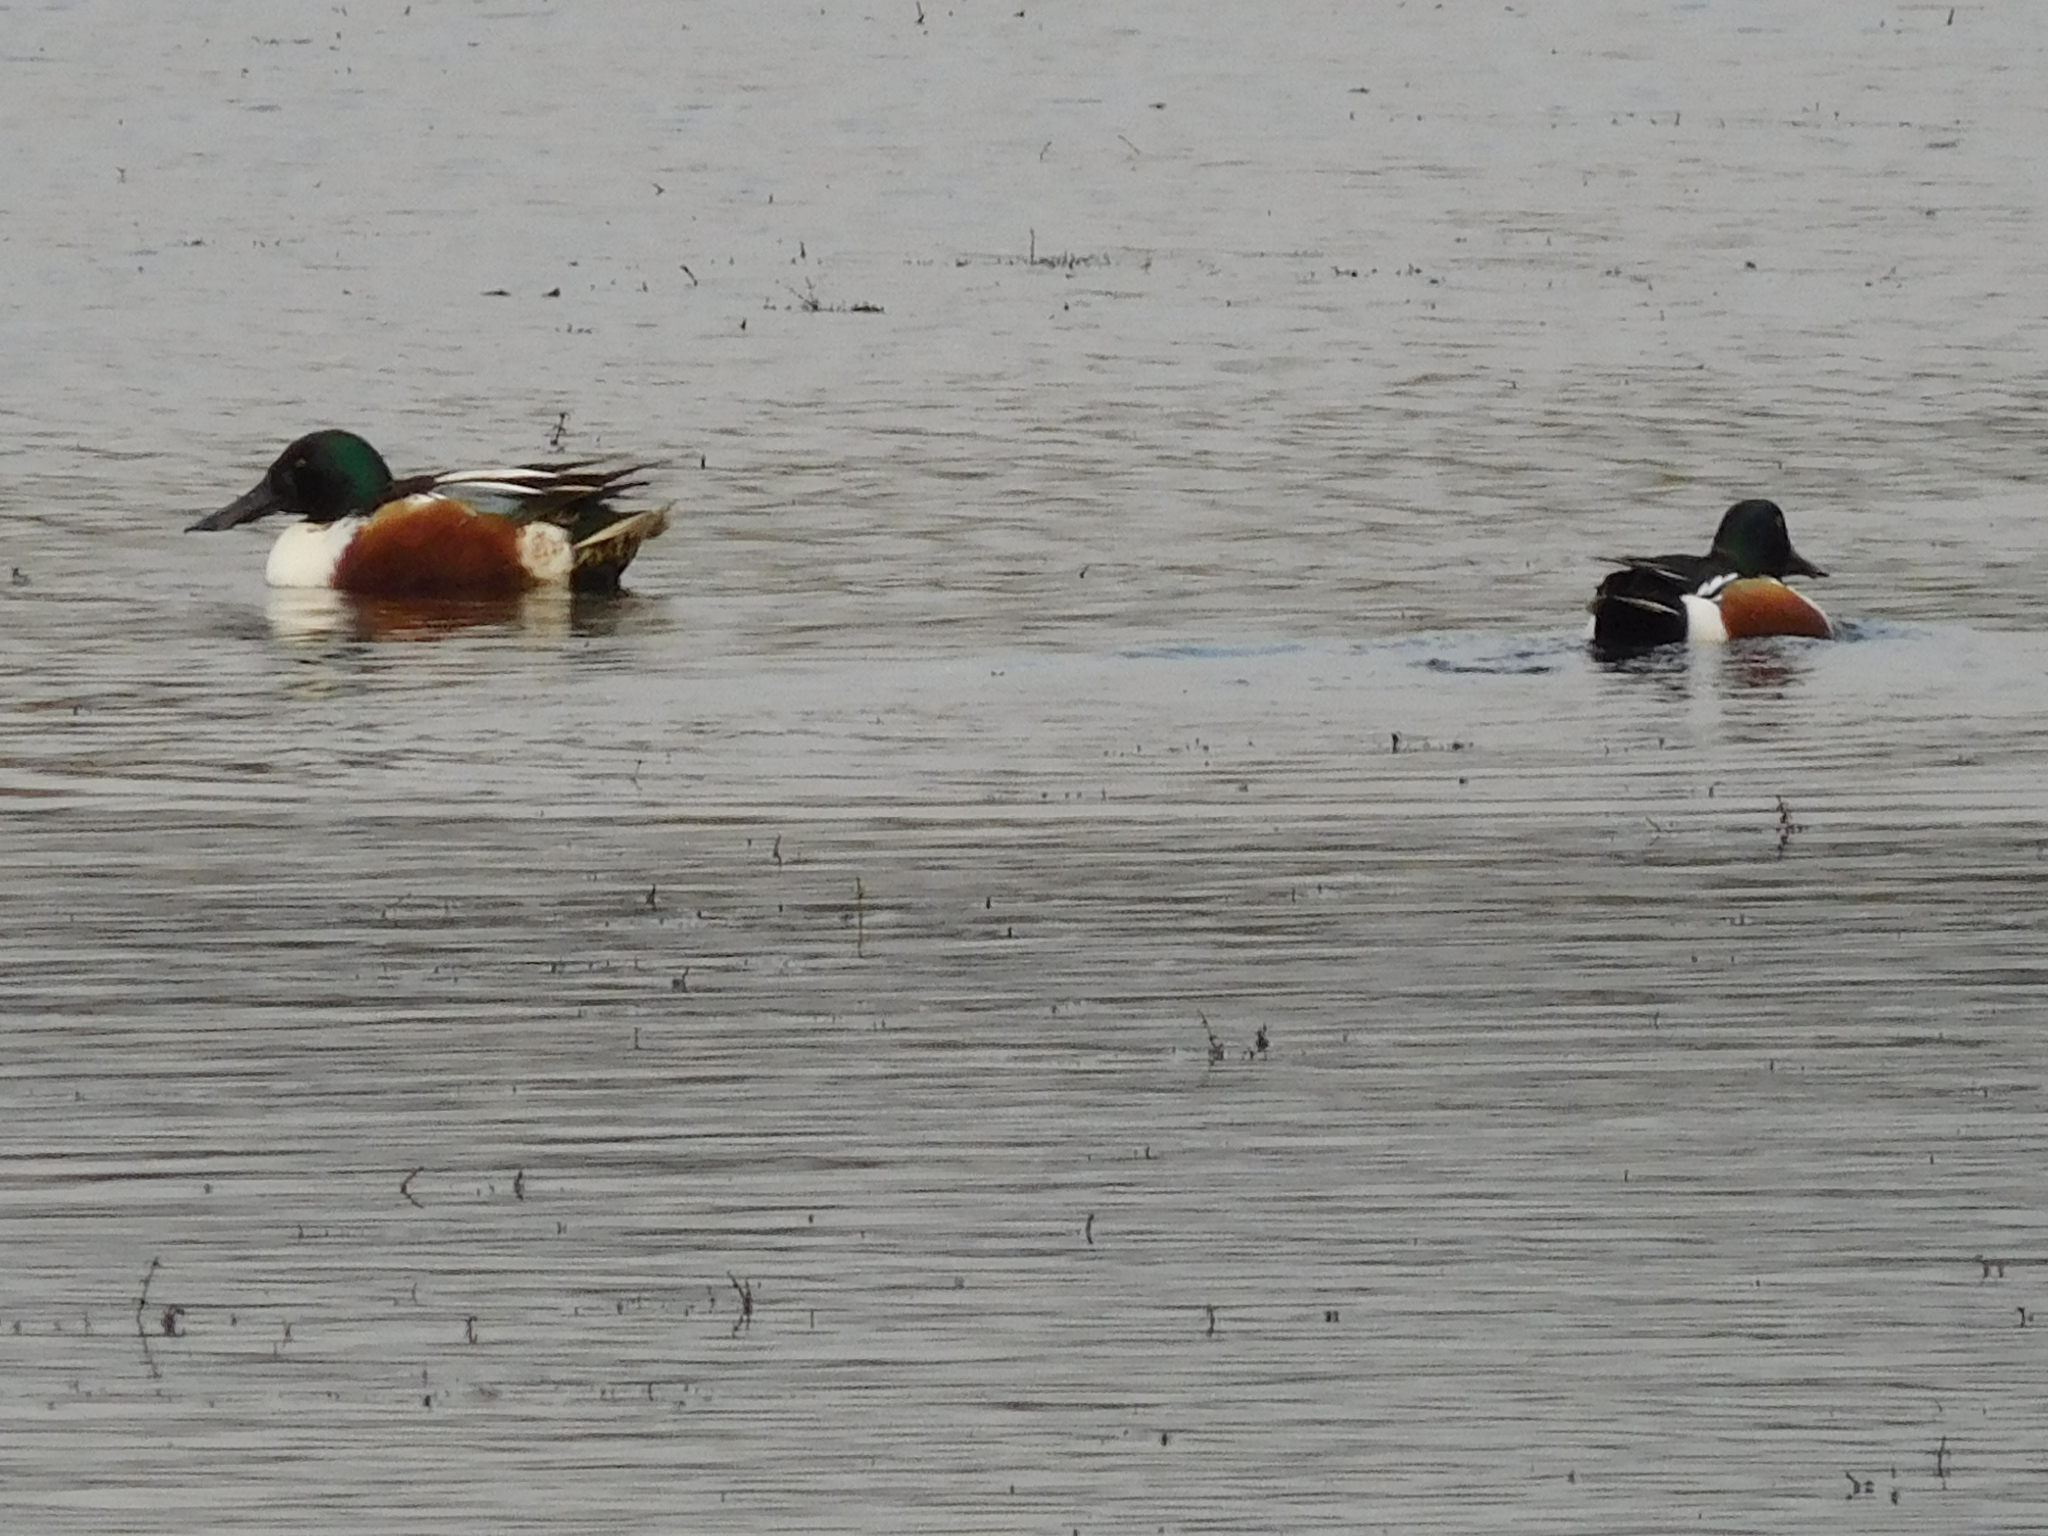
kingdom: Animalia
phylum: Chordata
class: Aves
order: Anseriformes
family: Anatidae
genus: Spatula
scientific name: Spatula clypeata
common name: Northern shoveler
